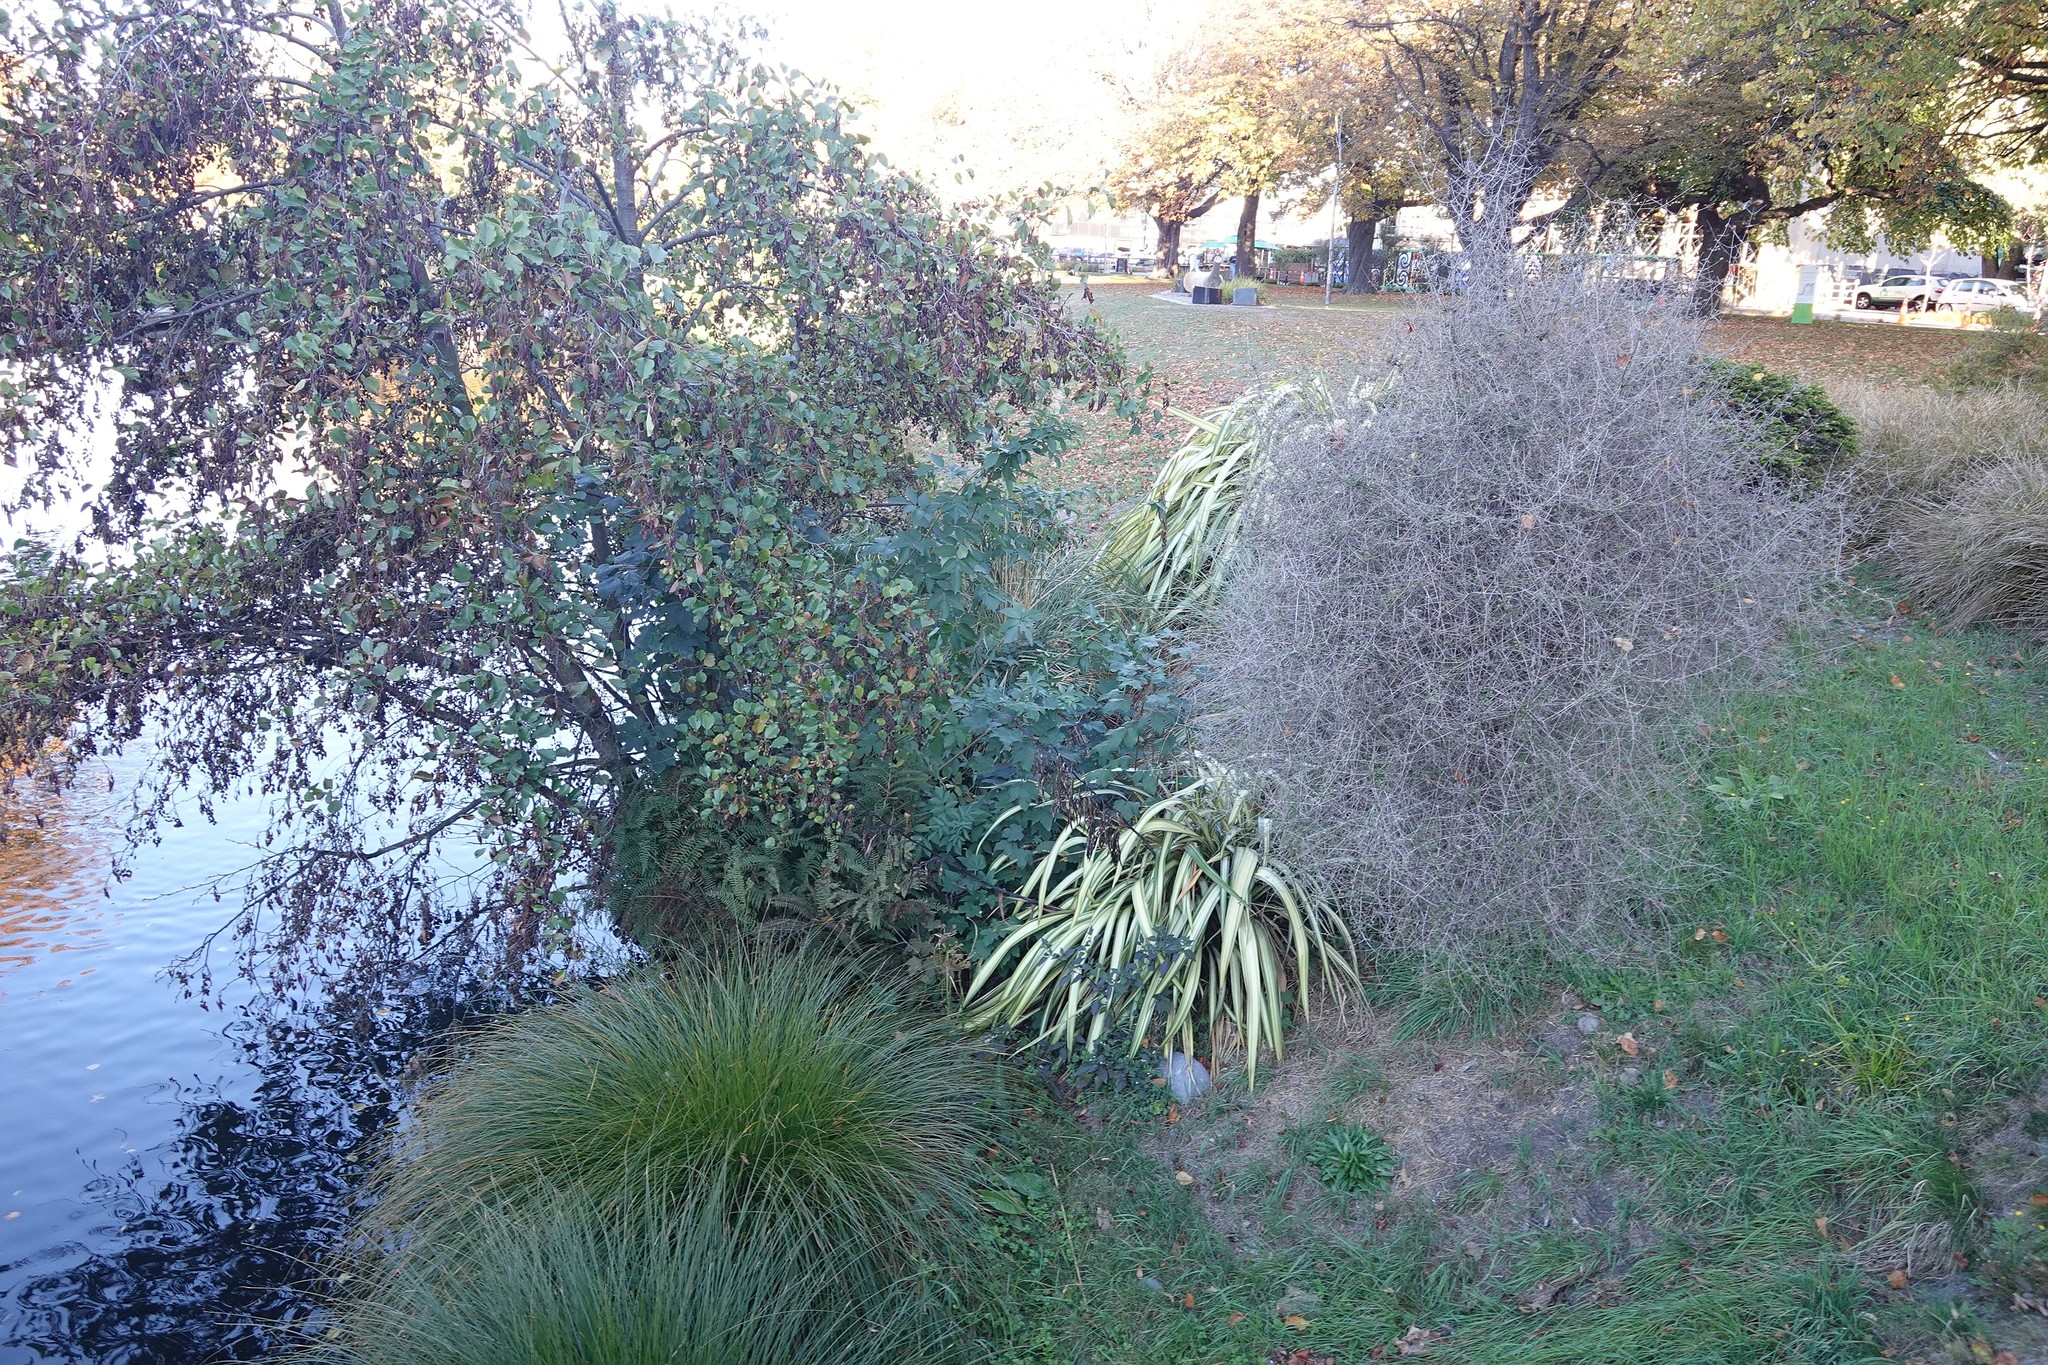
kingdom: Plantae
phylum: Tracheophyta
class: Magnoliopsida
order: Sapindales
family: Sapindaceae
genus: Acer
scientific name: Acer pseudoplatanus
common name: Sycamore
